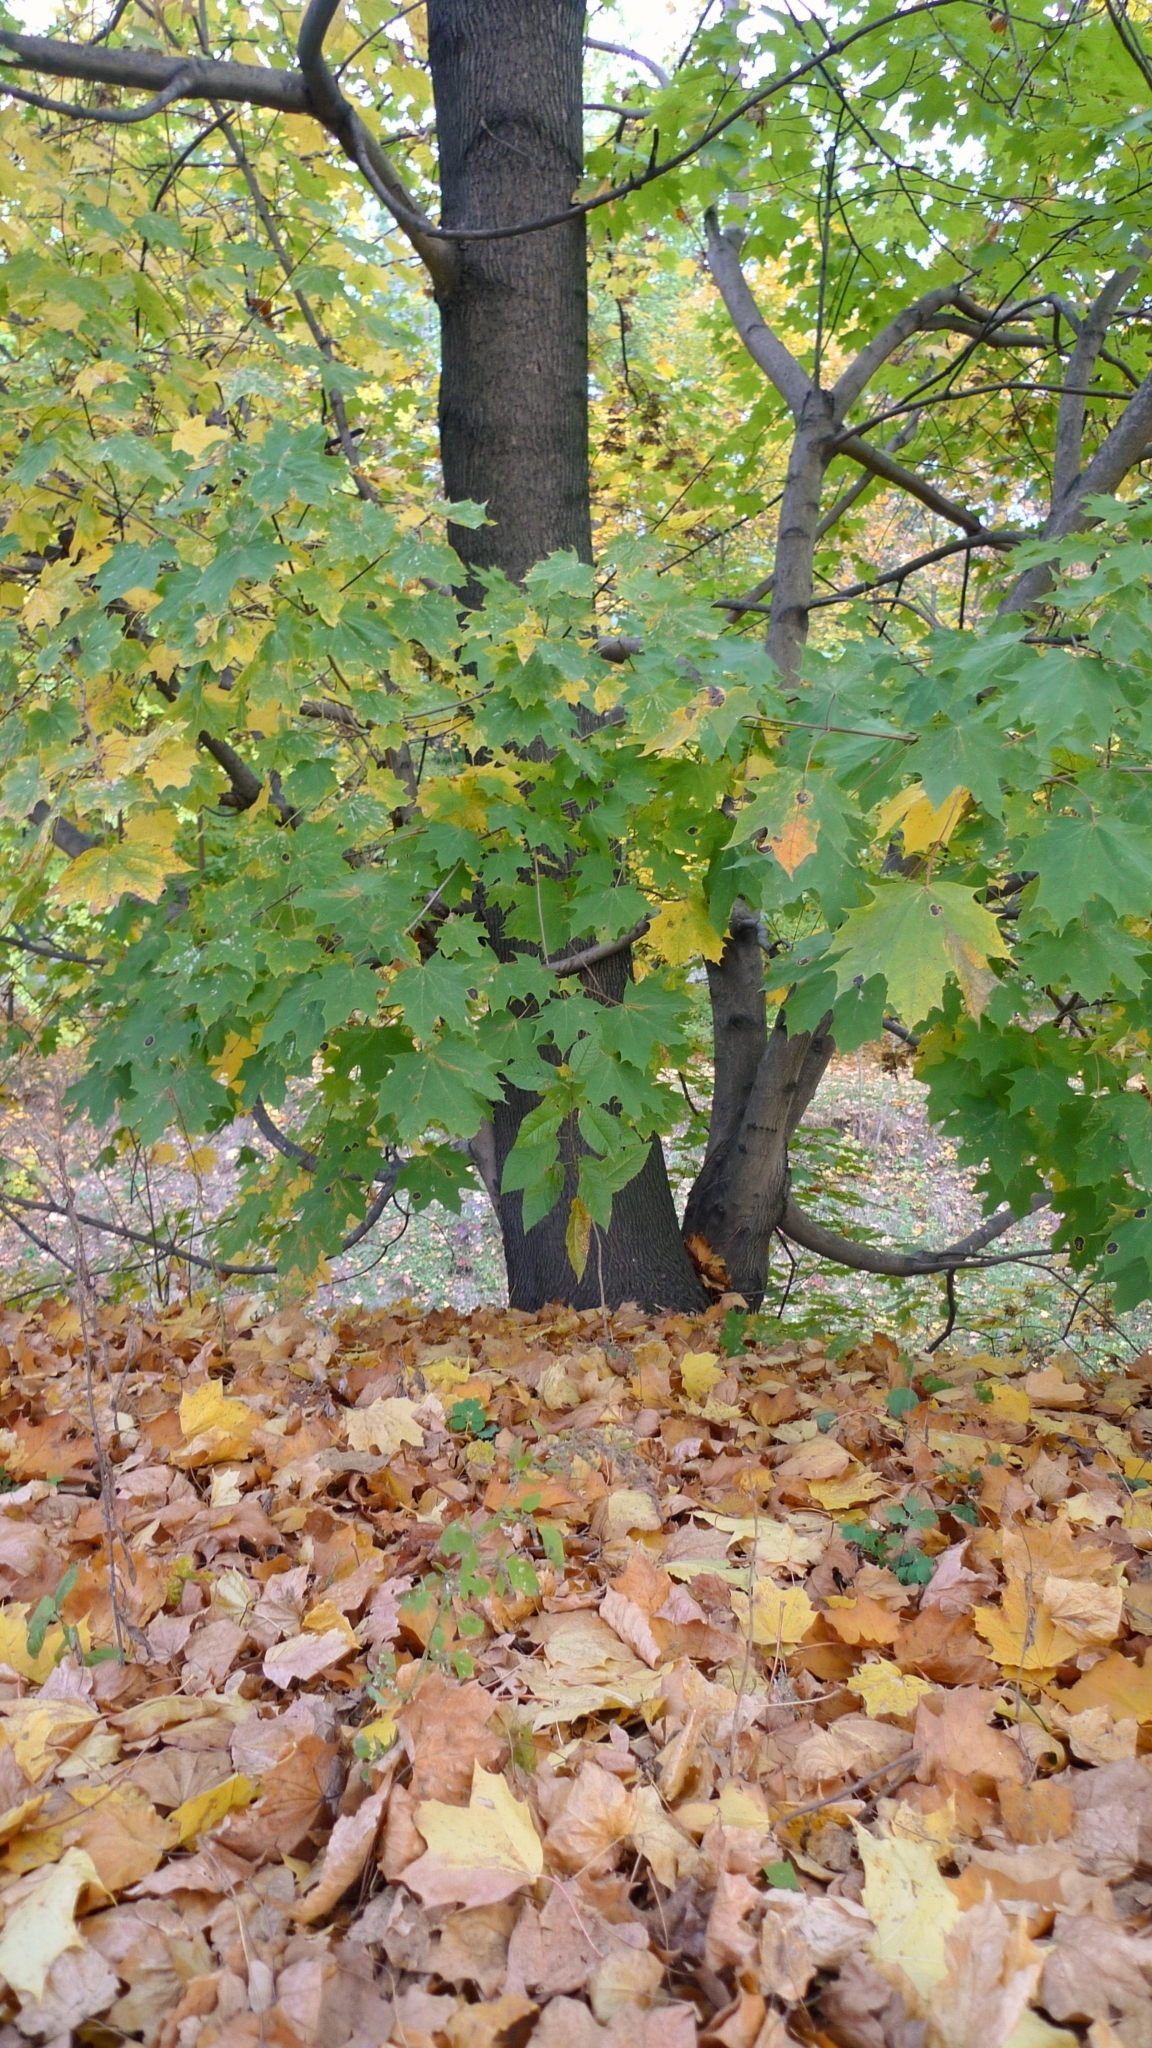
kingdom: Plantae
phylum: Tracheophyta
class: Magnoliopsida
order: Sapindales
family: Sapindaceae
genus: Acer
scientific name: Acer platanoides
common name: Norway maple
